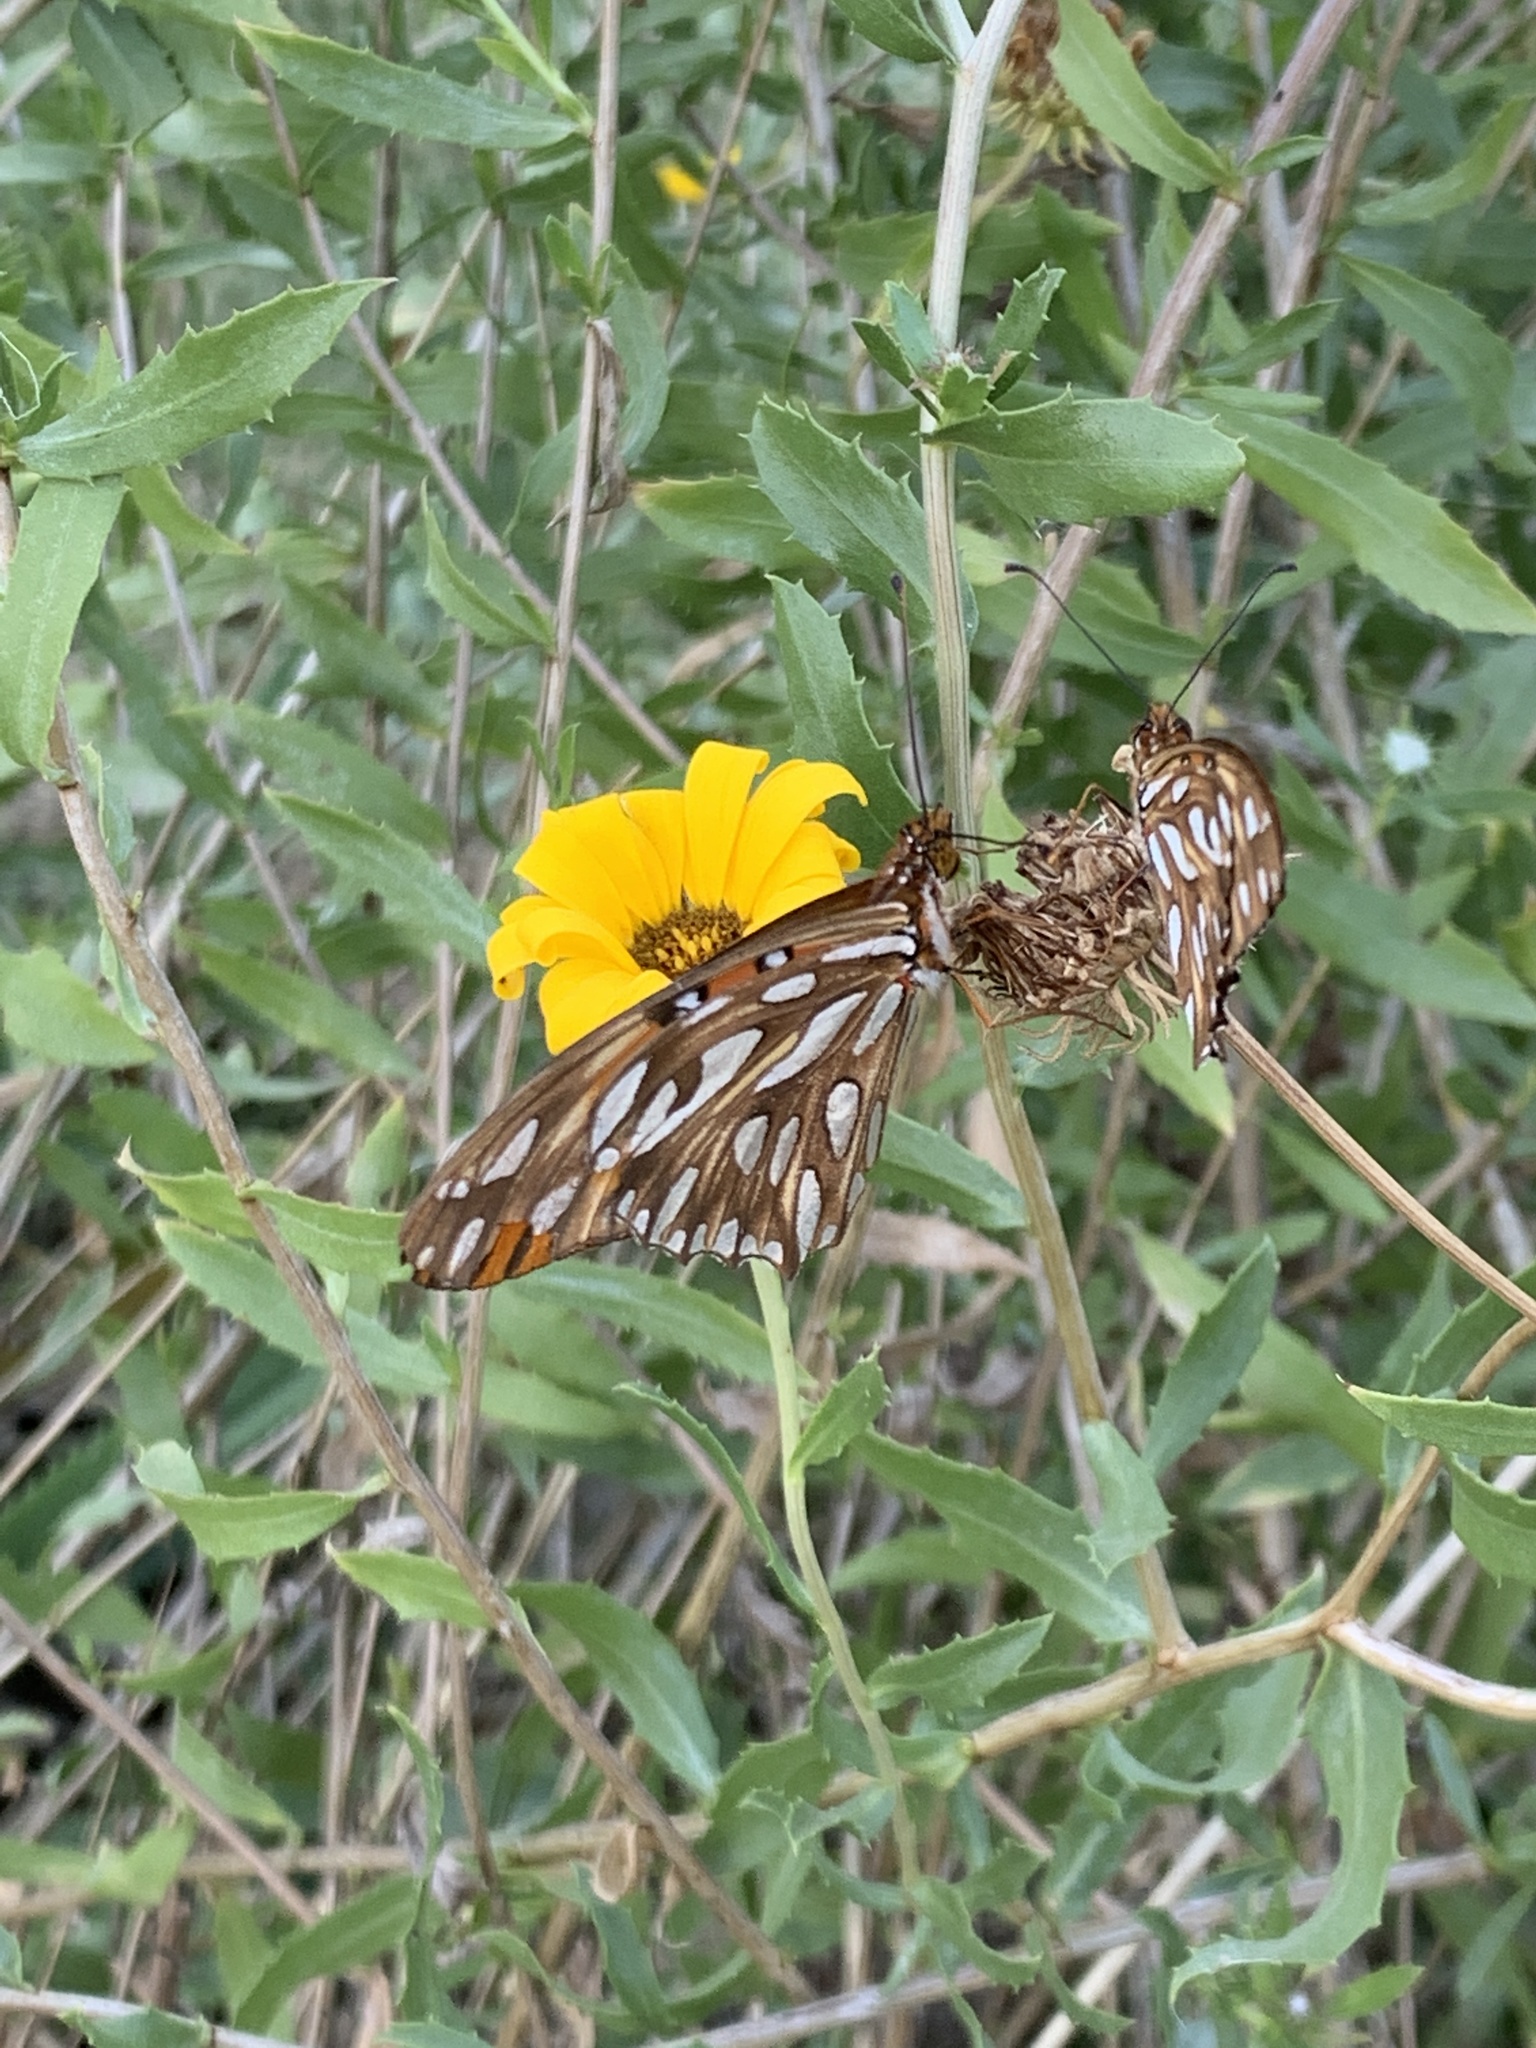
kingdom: Animalia
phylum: Arthropoda
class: Insecta
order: Lepidoptera
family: Nymphalidae
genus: Dione
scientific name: Dione vanillae
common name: Gulf fritillary
